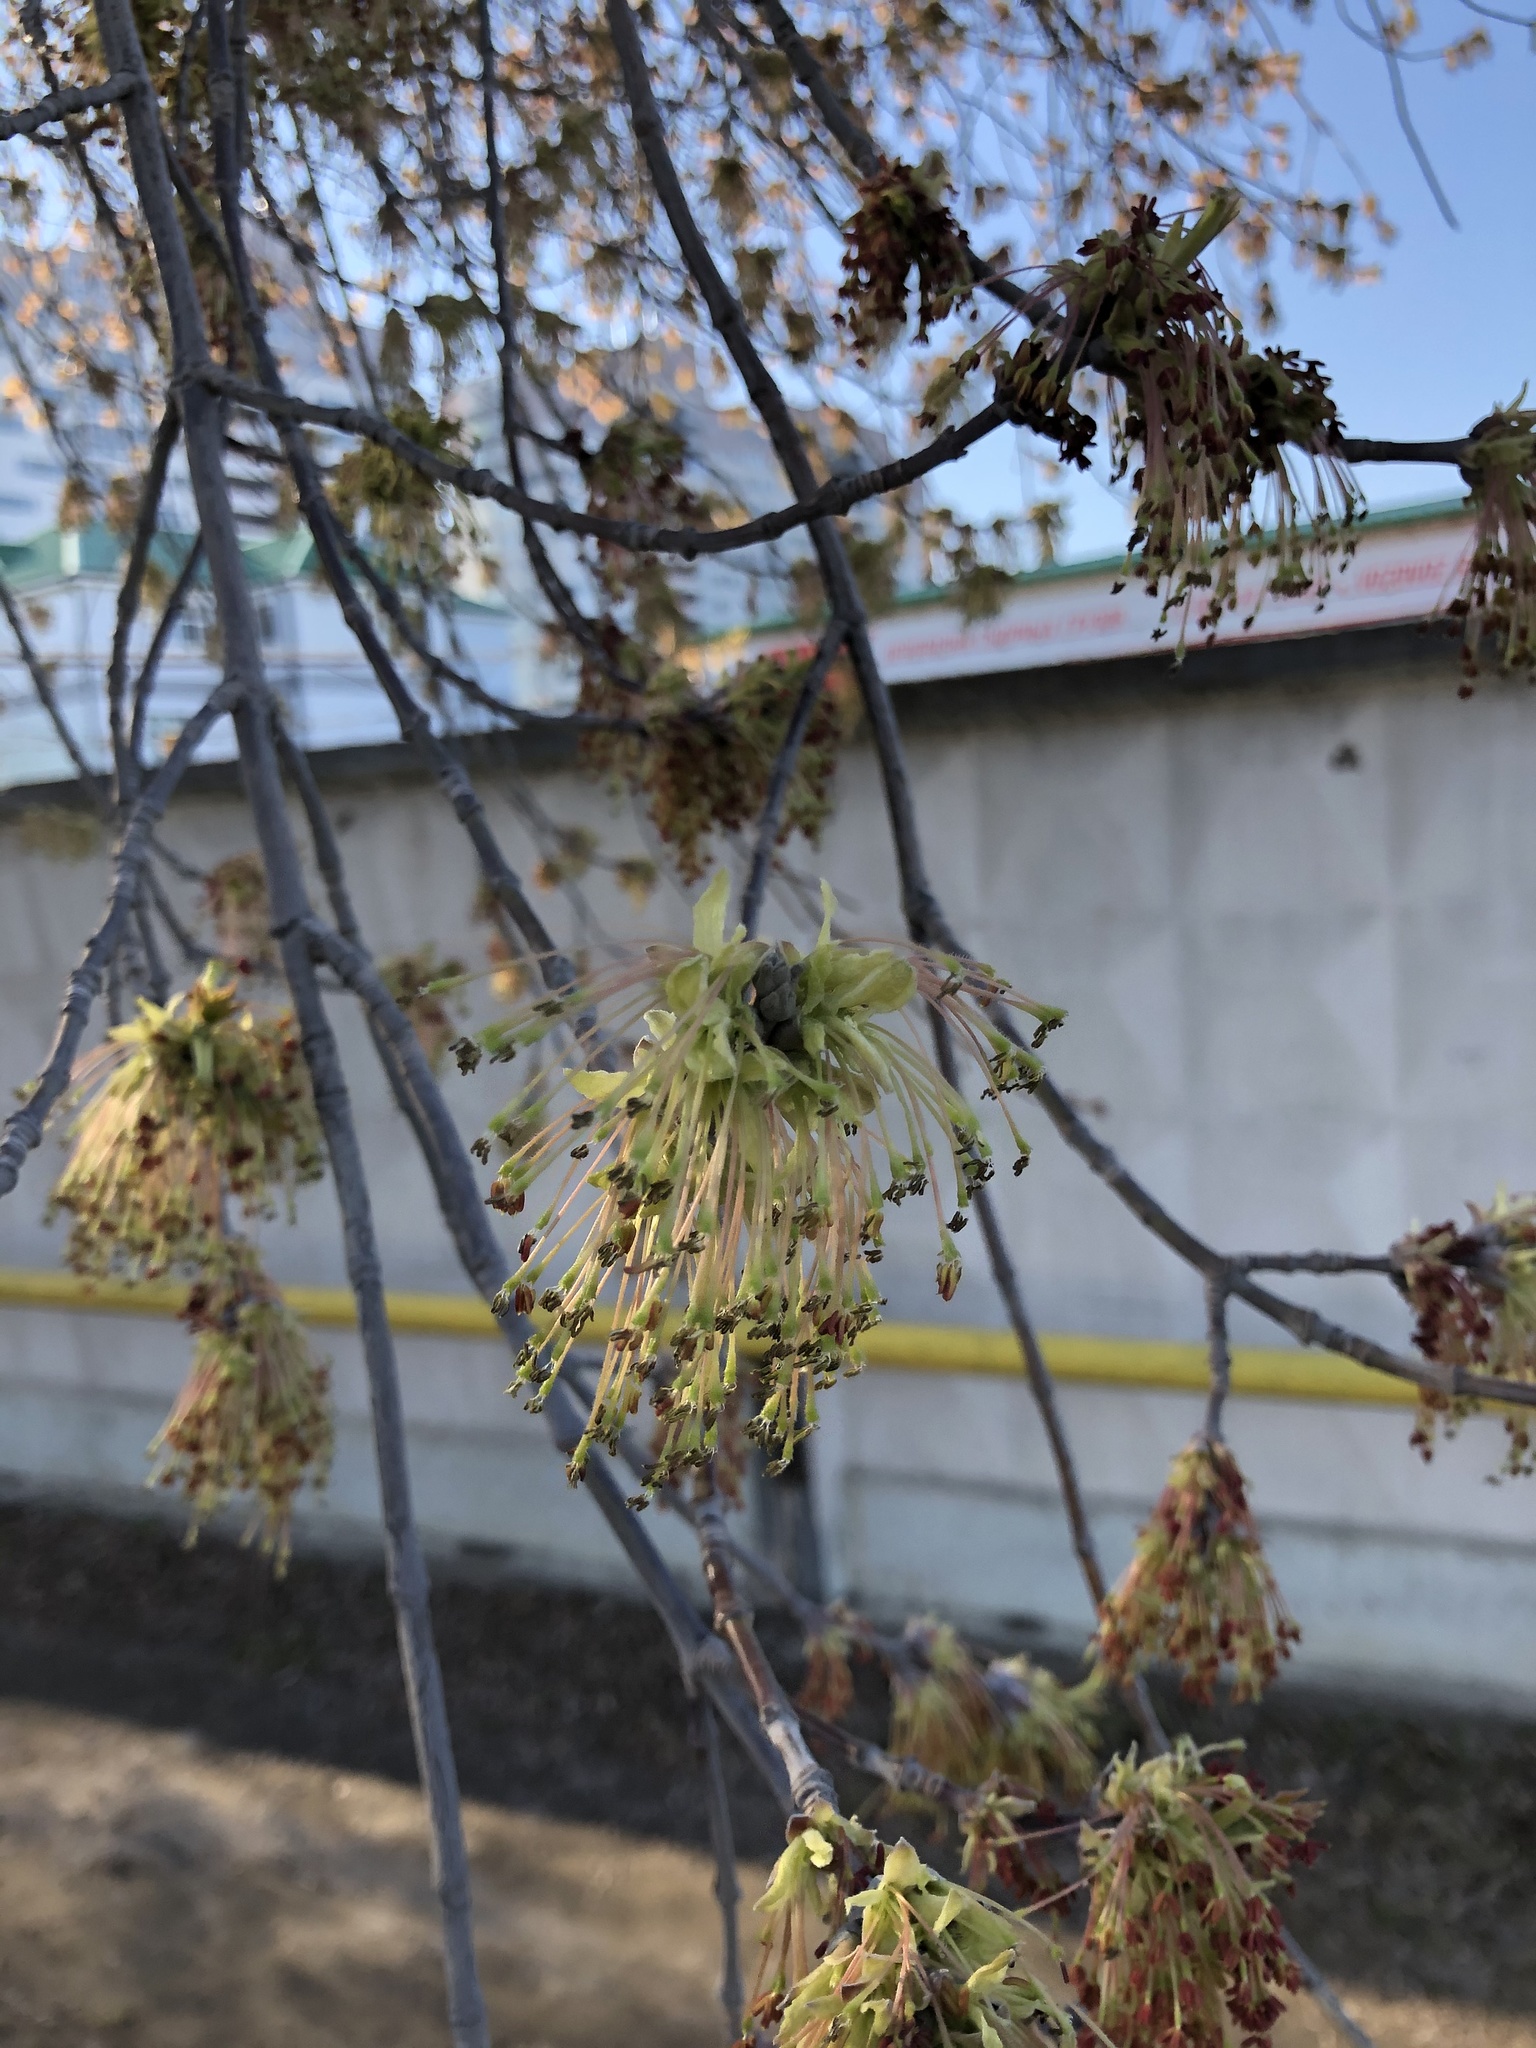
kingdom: Plantae
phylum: Tracheophyta
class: Magnoliopsida
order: Sapindales
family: Sapindaceae
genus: Acer
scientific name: Acer negundo
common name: Ashleaf maple
